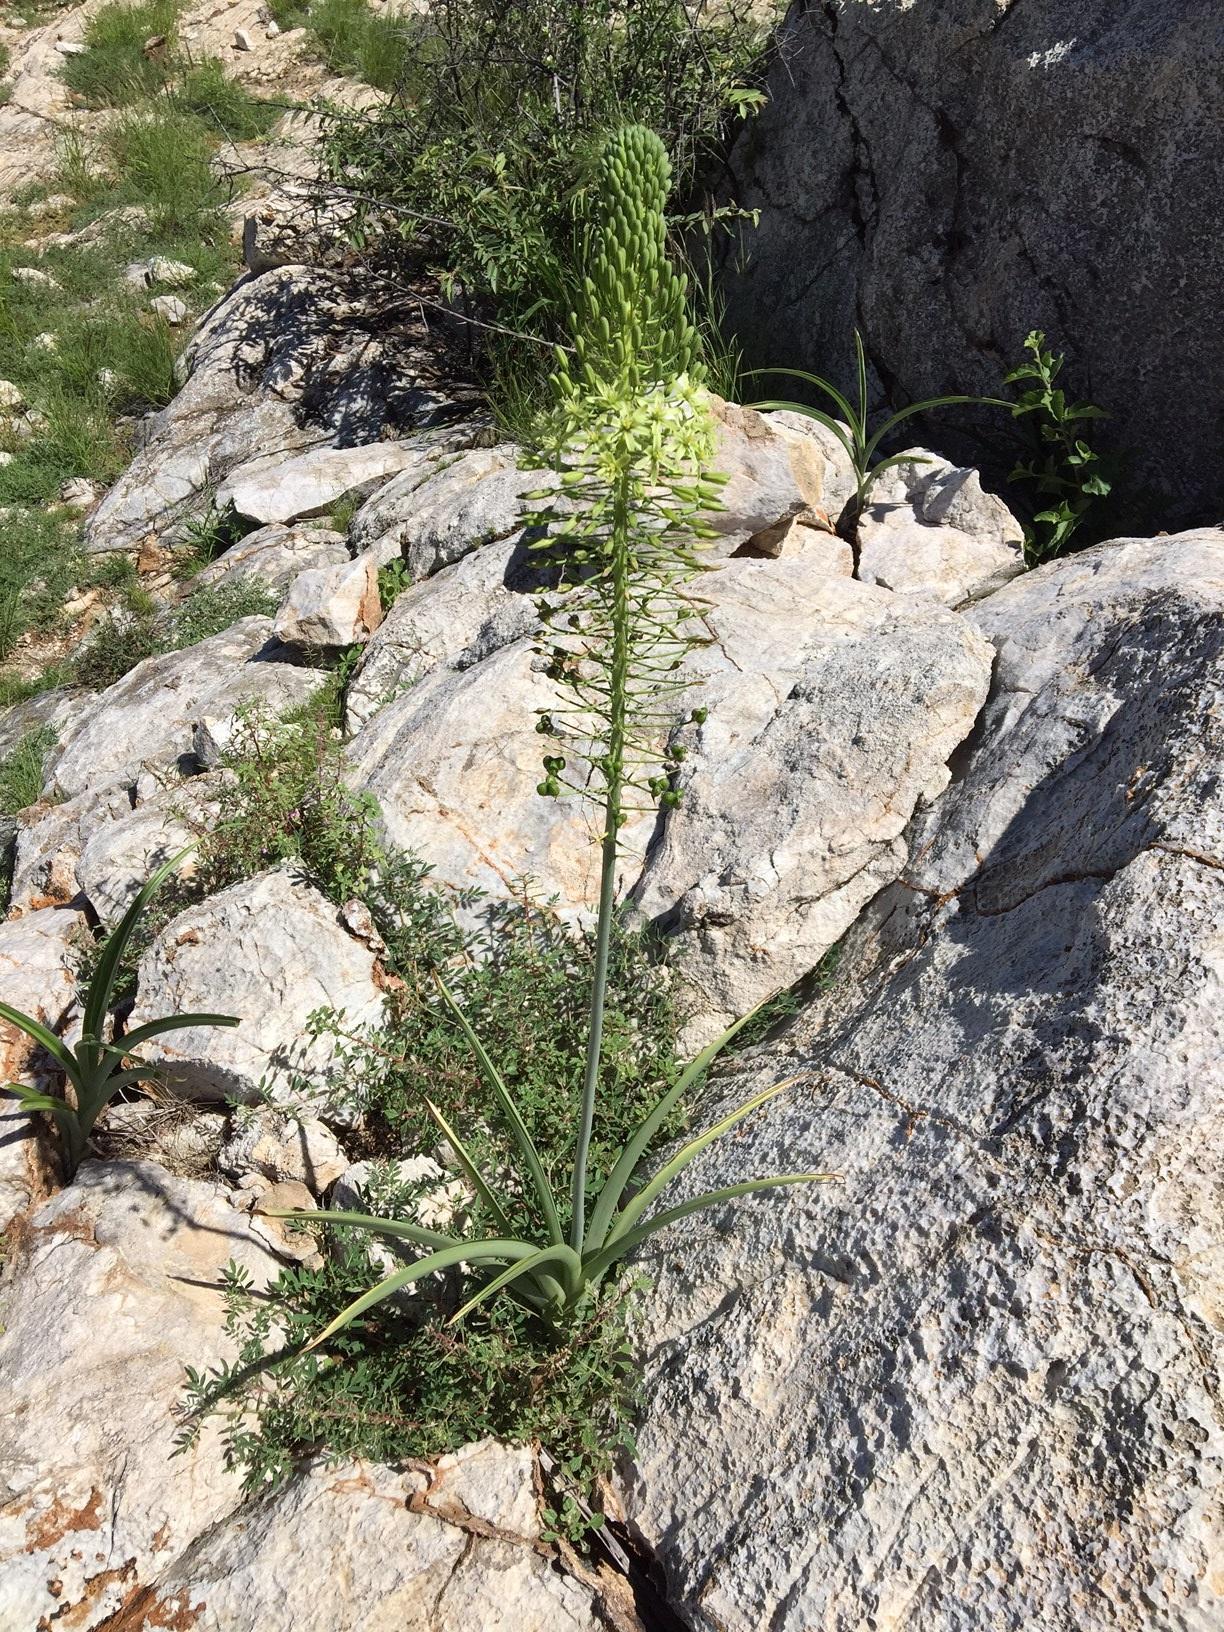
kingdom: Plantae
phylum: Tracheophyta
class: Liliopsida
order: Asparagales
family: Asparagaceae
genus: Albuca
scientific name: Albuca pulchra
